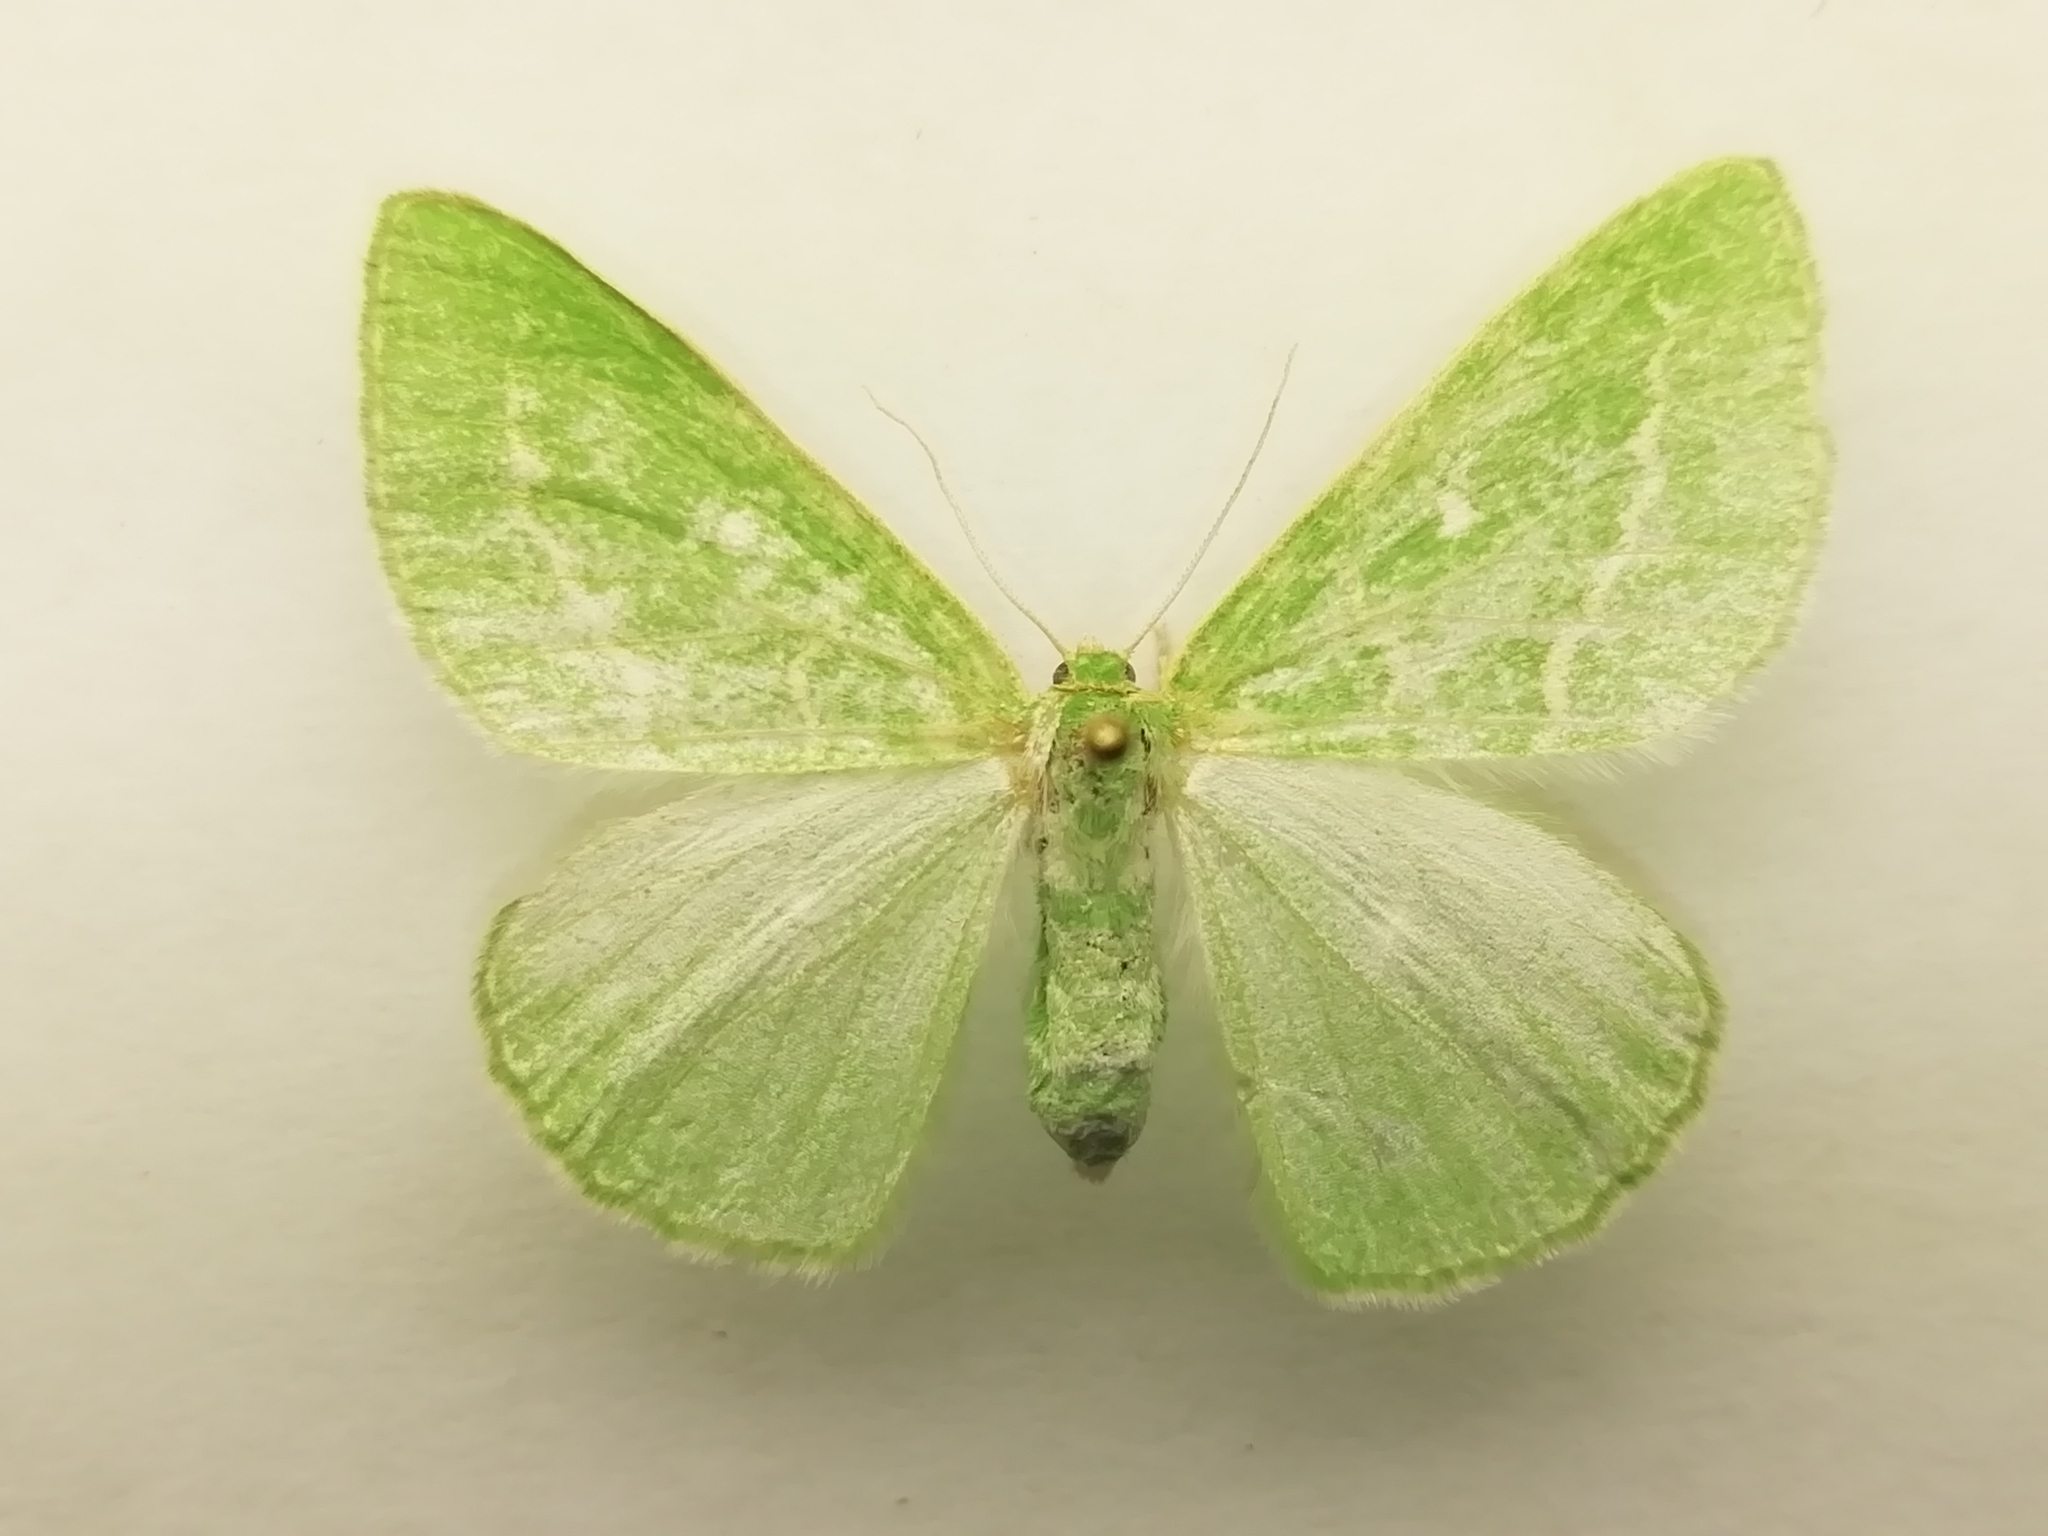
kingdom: Animalia
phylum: Arthropoda
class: Insecta
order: Lepidoptera
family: Geometridae
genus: Thetidia
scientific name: Thetidia smaragdaria
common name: Essex emerald
